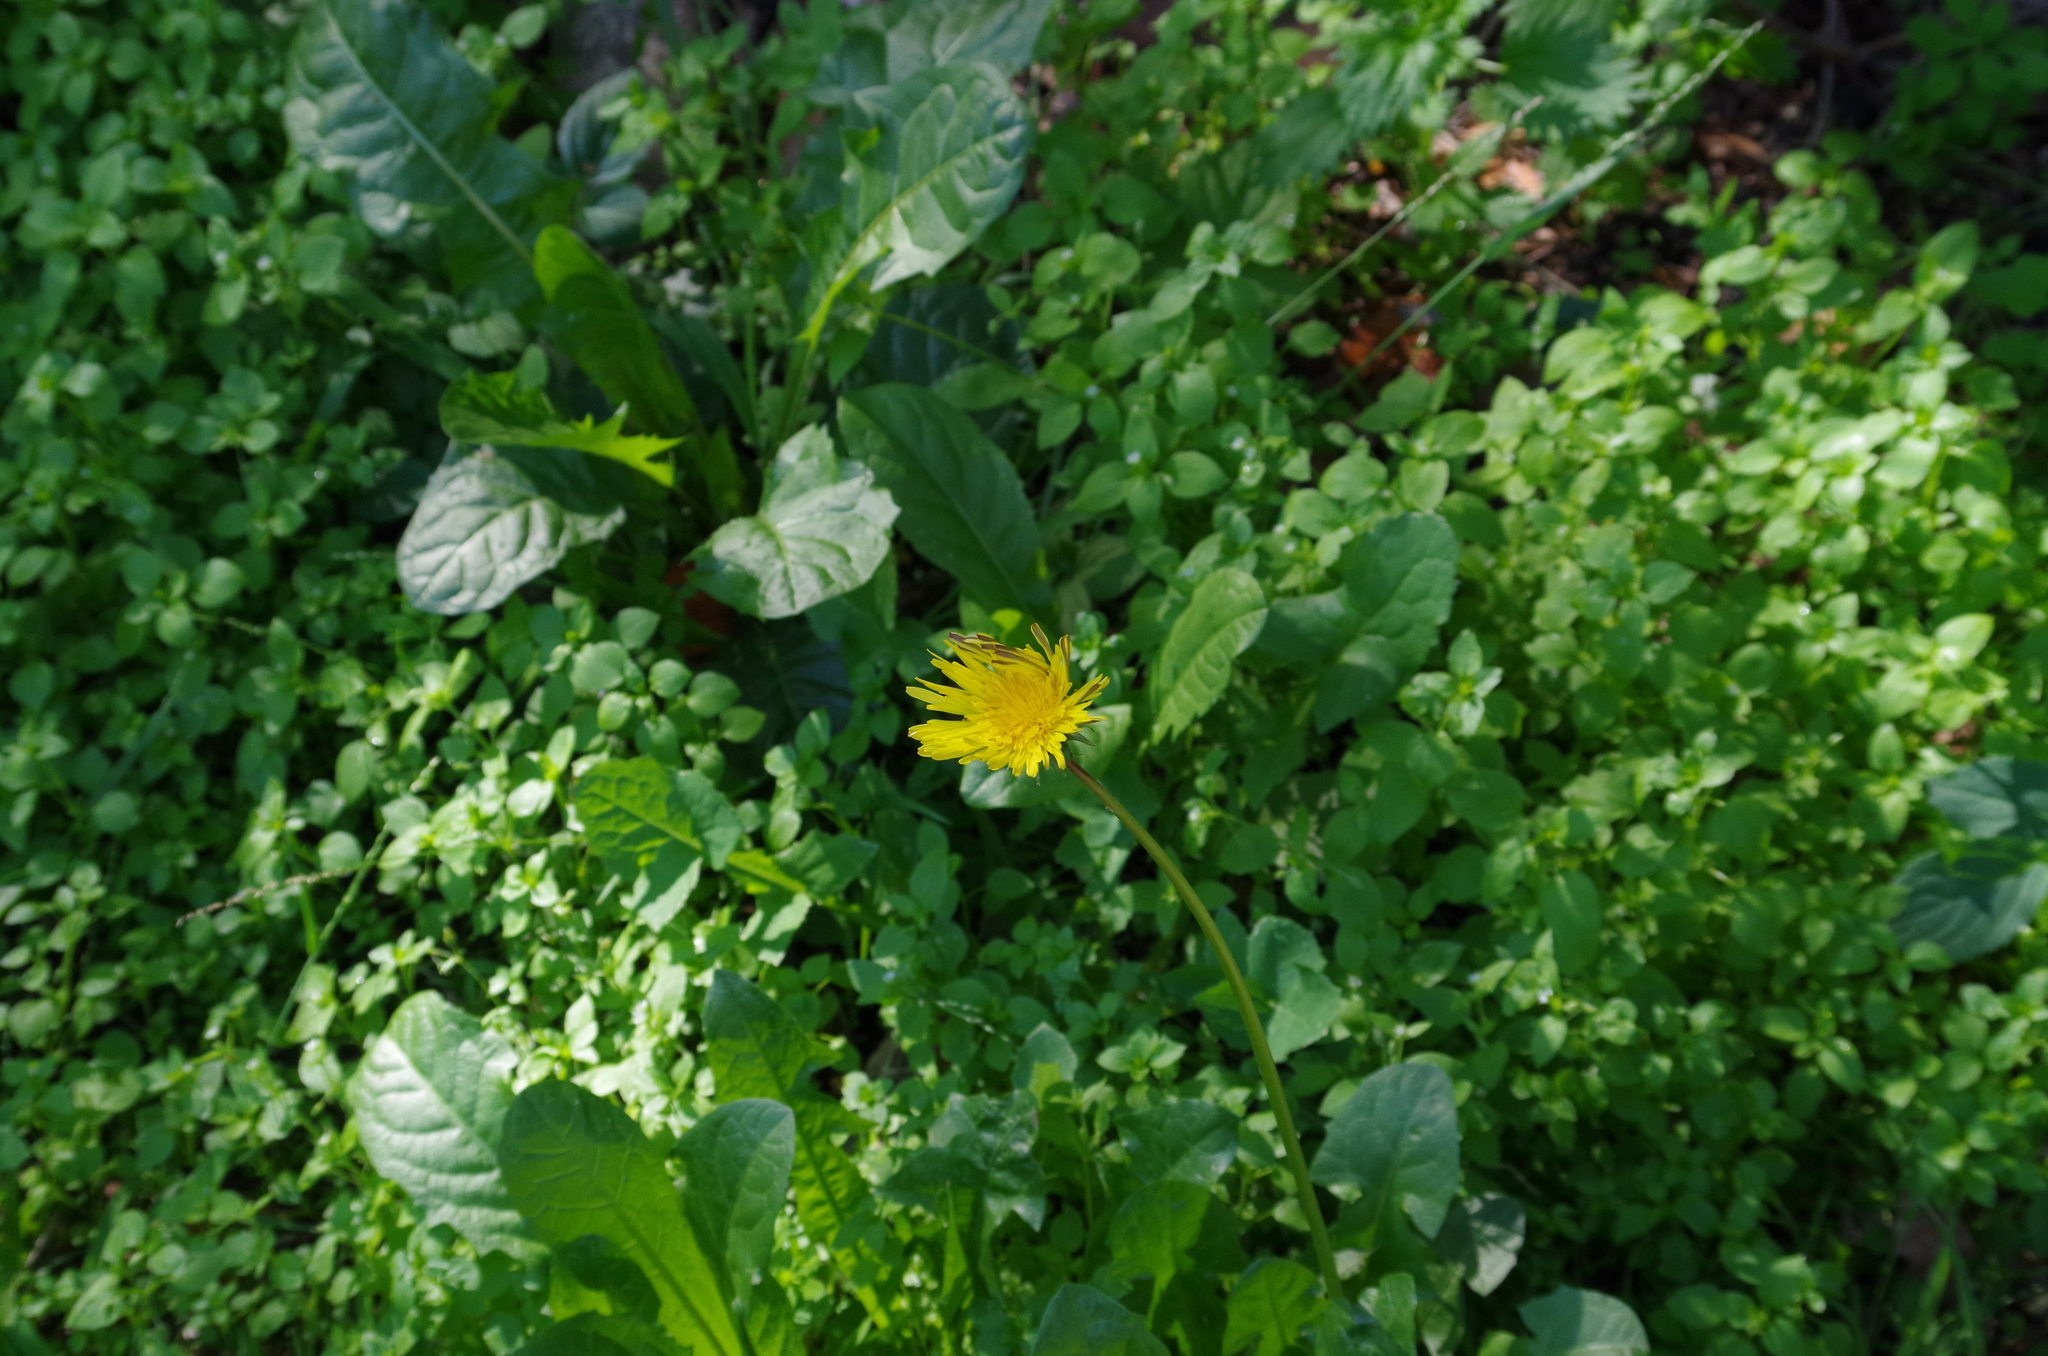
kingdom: Plantae
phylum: Tracheophyta
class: Magnoliopsida
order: Asterales
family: Asteraceae
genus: Taraxacum
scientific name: Taraxacum officinale
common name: Common dandelion
